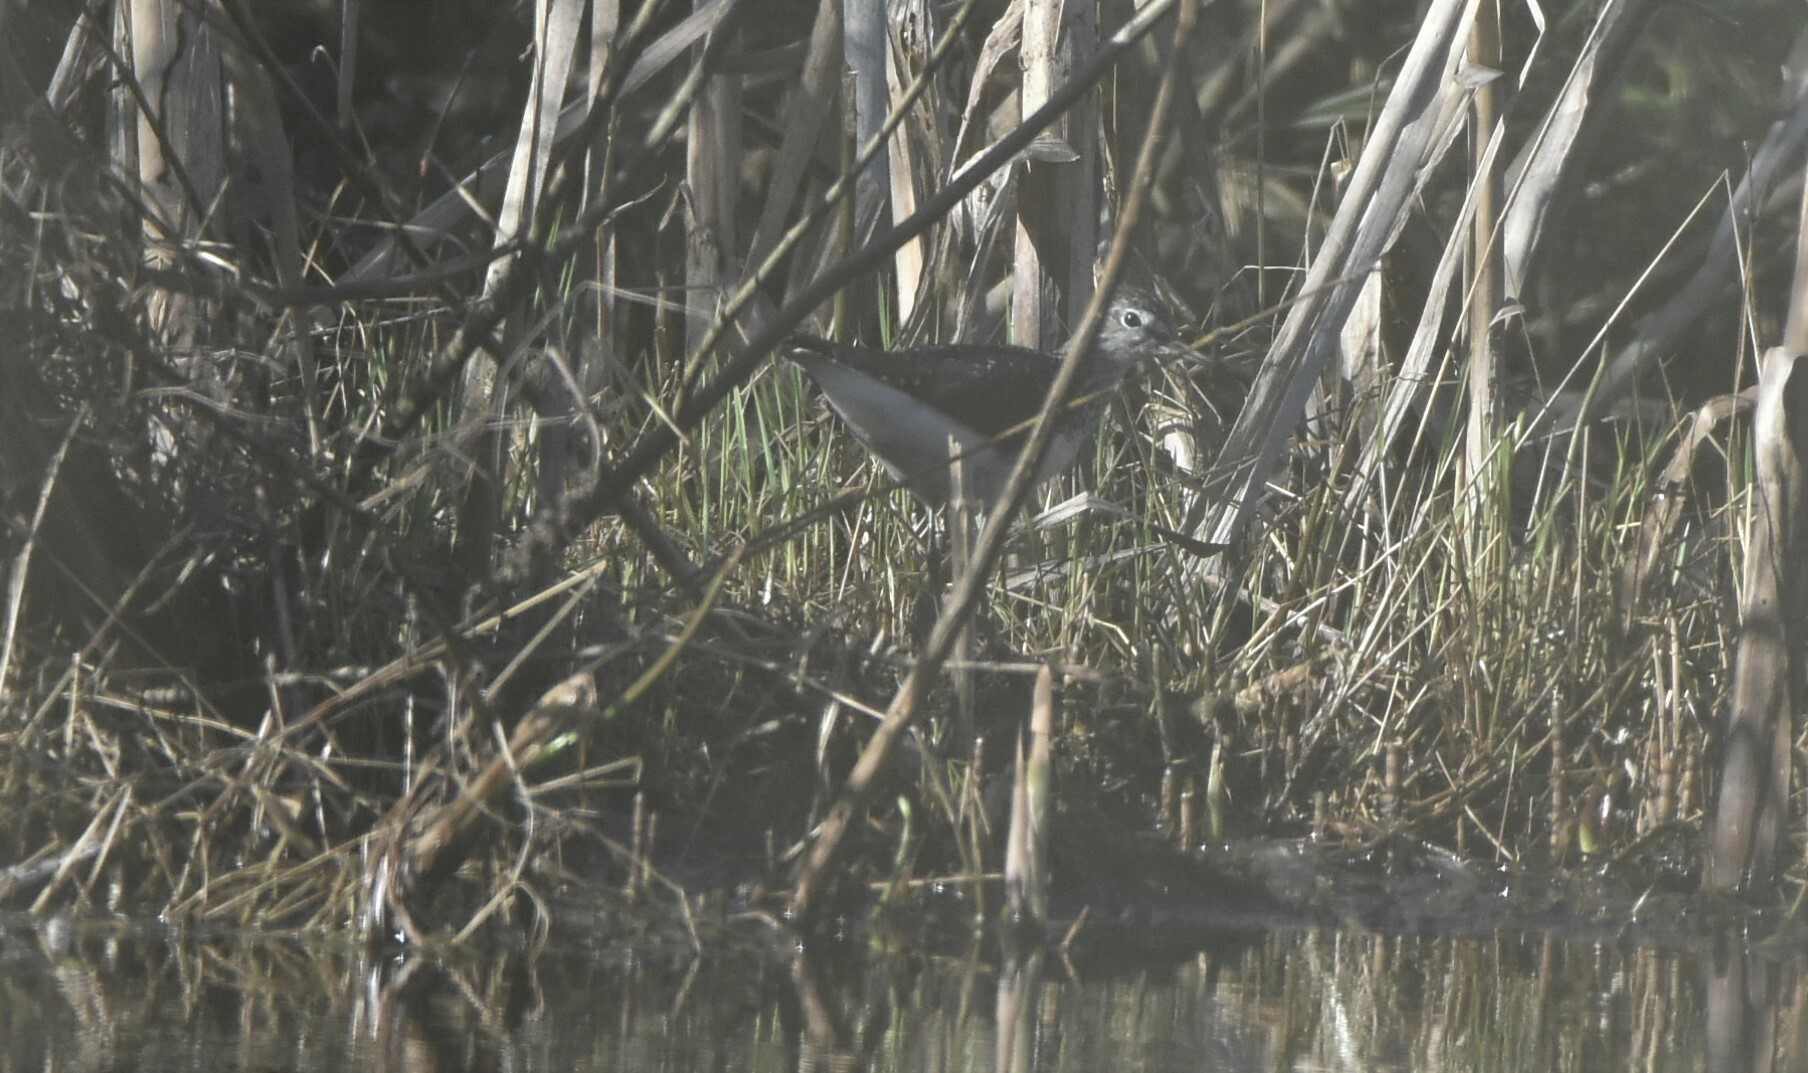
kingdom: Animalia
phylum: Chordata
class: Aves
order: Charadriiformes
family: Scolopacidae
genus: Tringa
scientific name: Tringa ochropus
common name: Green sandpiper
